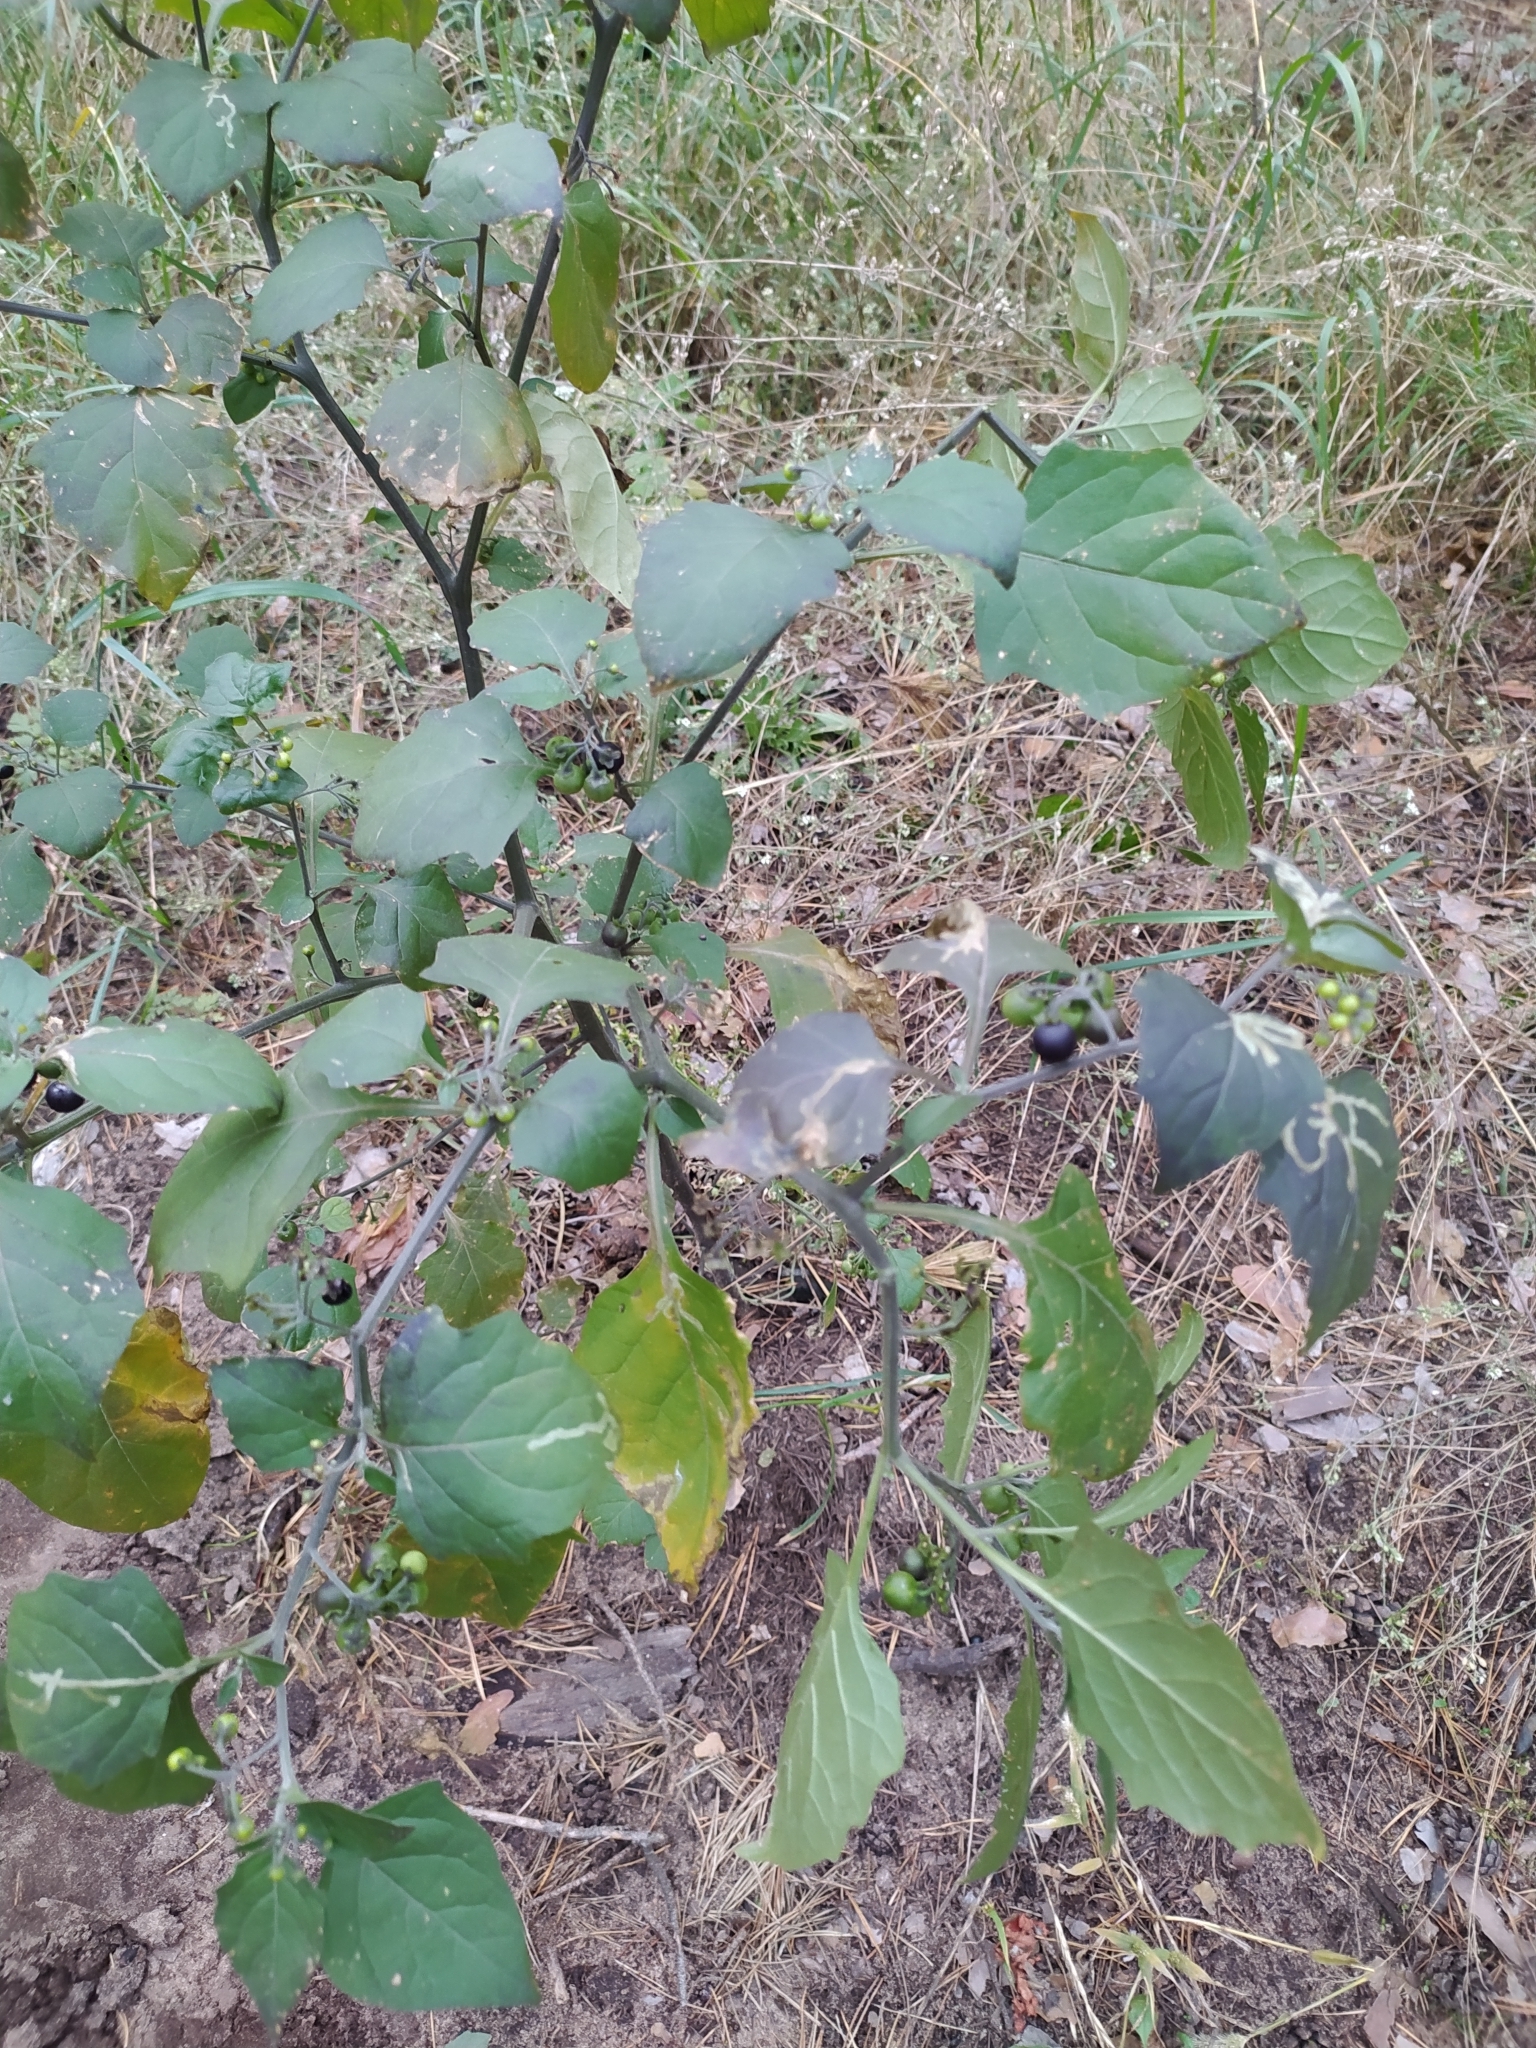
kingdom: Plantae
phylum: Tracheophyta
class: Magnoliopsida
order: Solanales
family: Solanaceae
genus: Solanum
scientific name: Solanum nigrum
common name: Black nightshade
